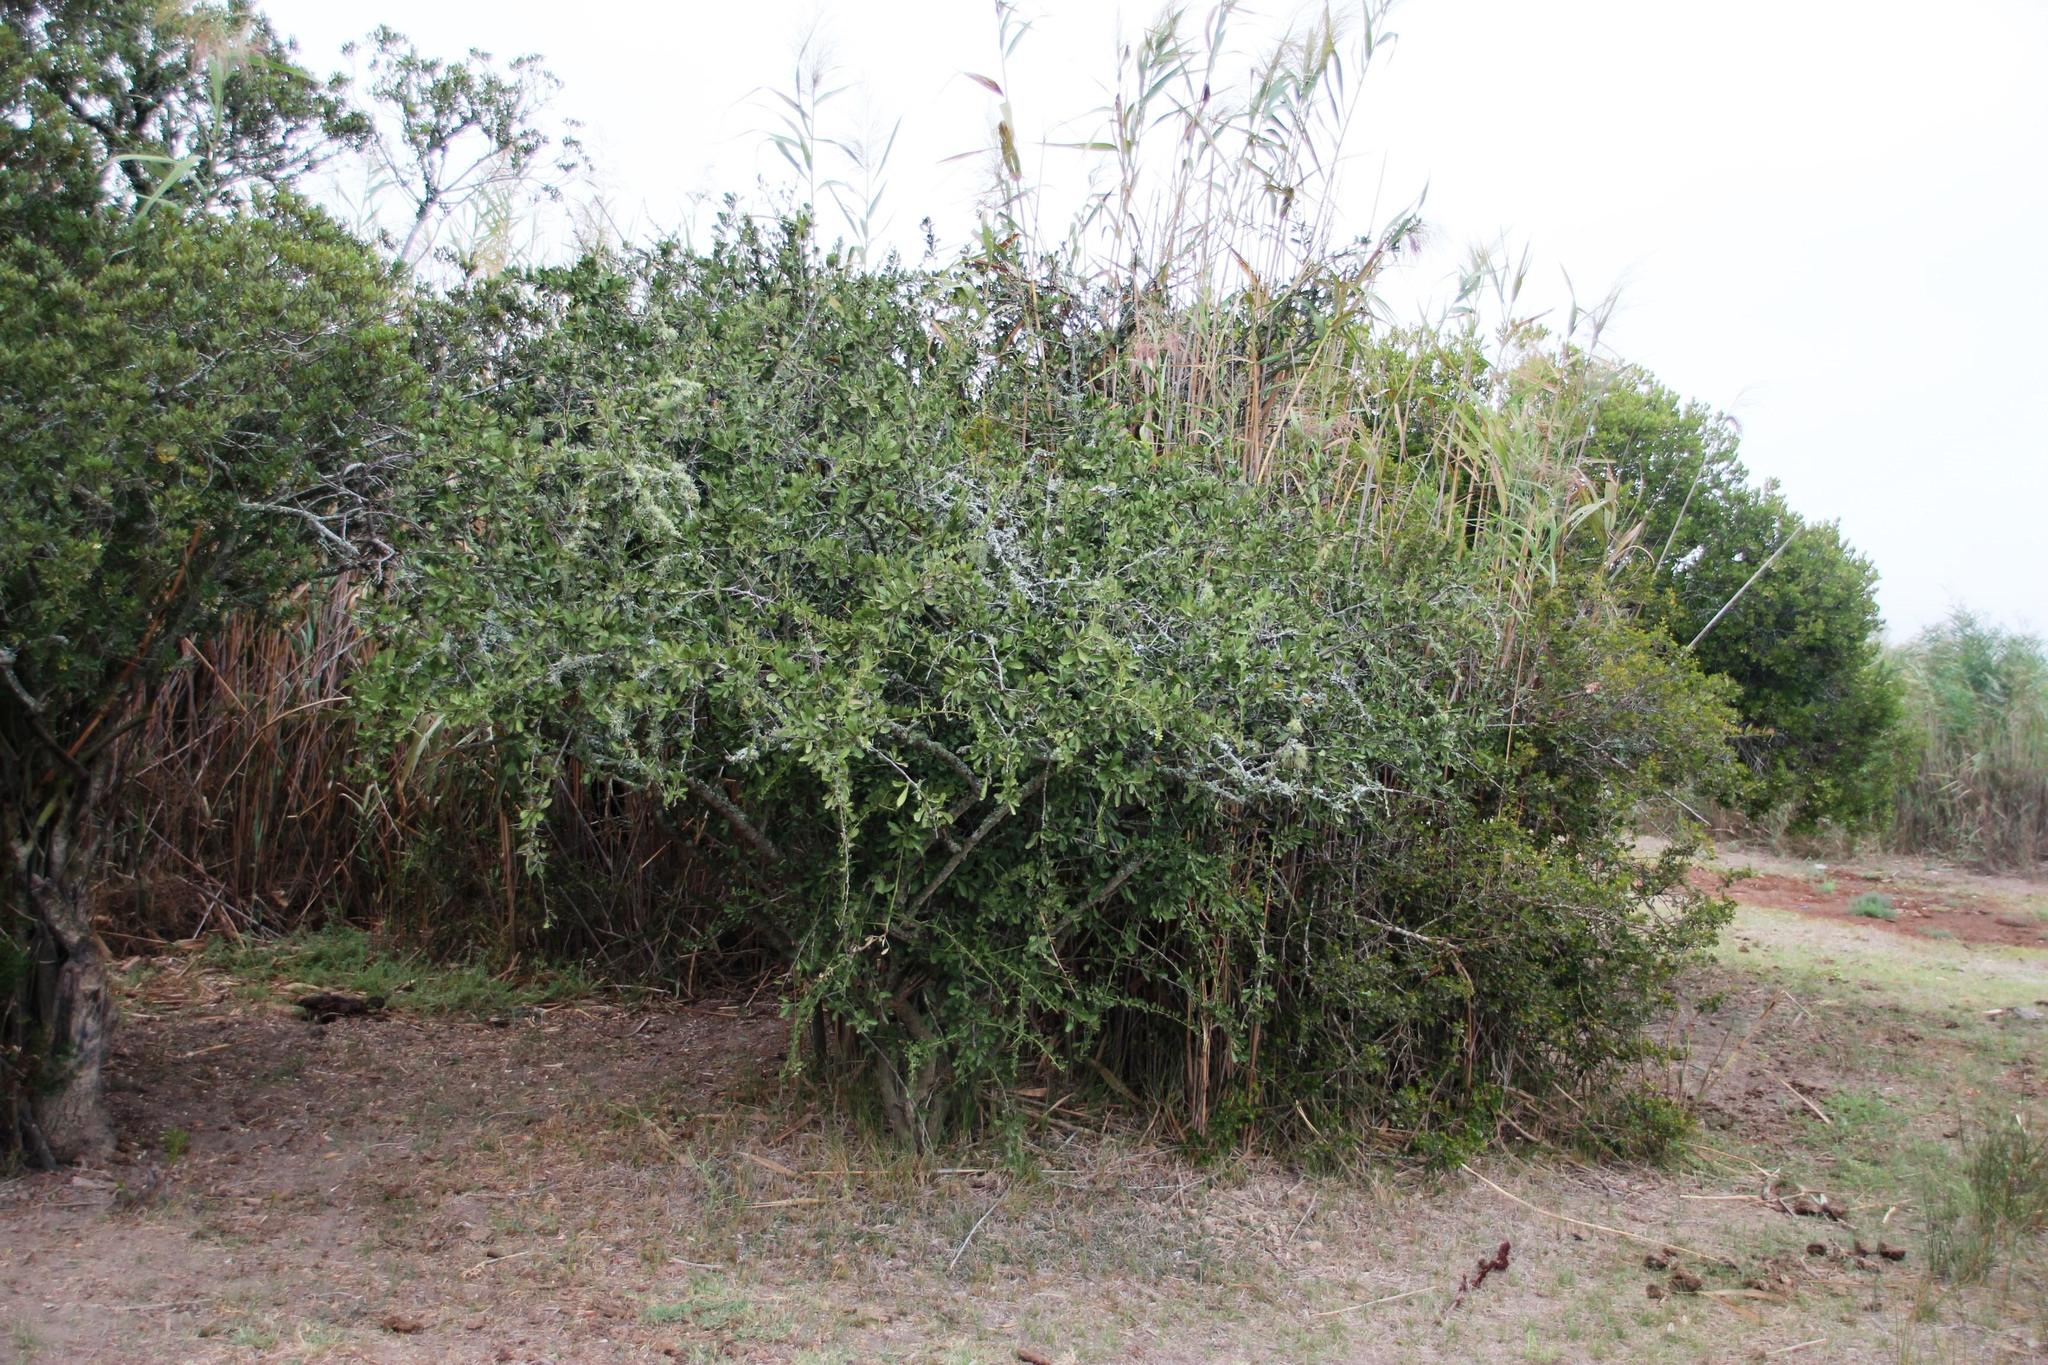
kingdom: Plantae
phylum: Tracheophyta
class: Magnoliopsida
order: Celastrales
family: Celastraceae
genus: Gymnosporia
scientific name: Gymnosporia buxifolia
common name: Common spike-thorn
